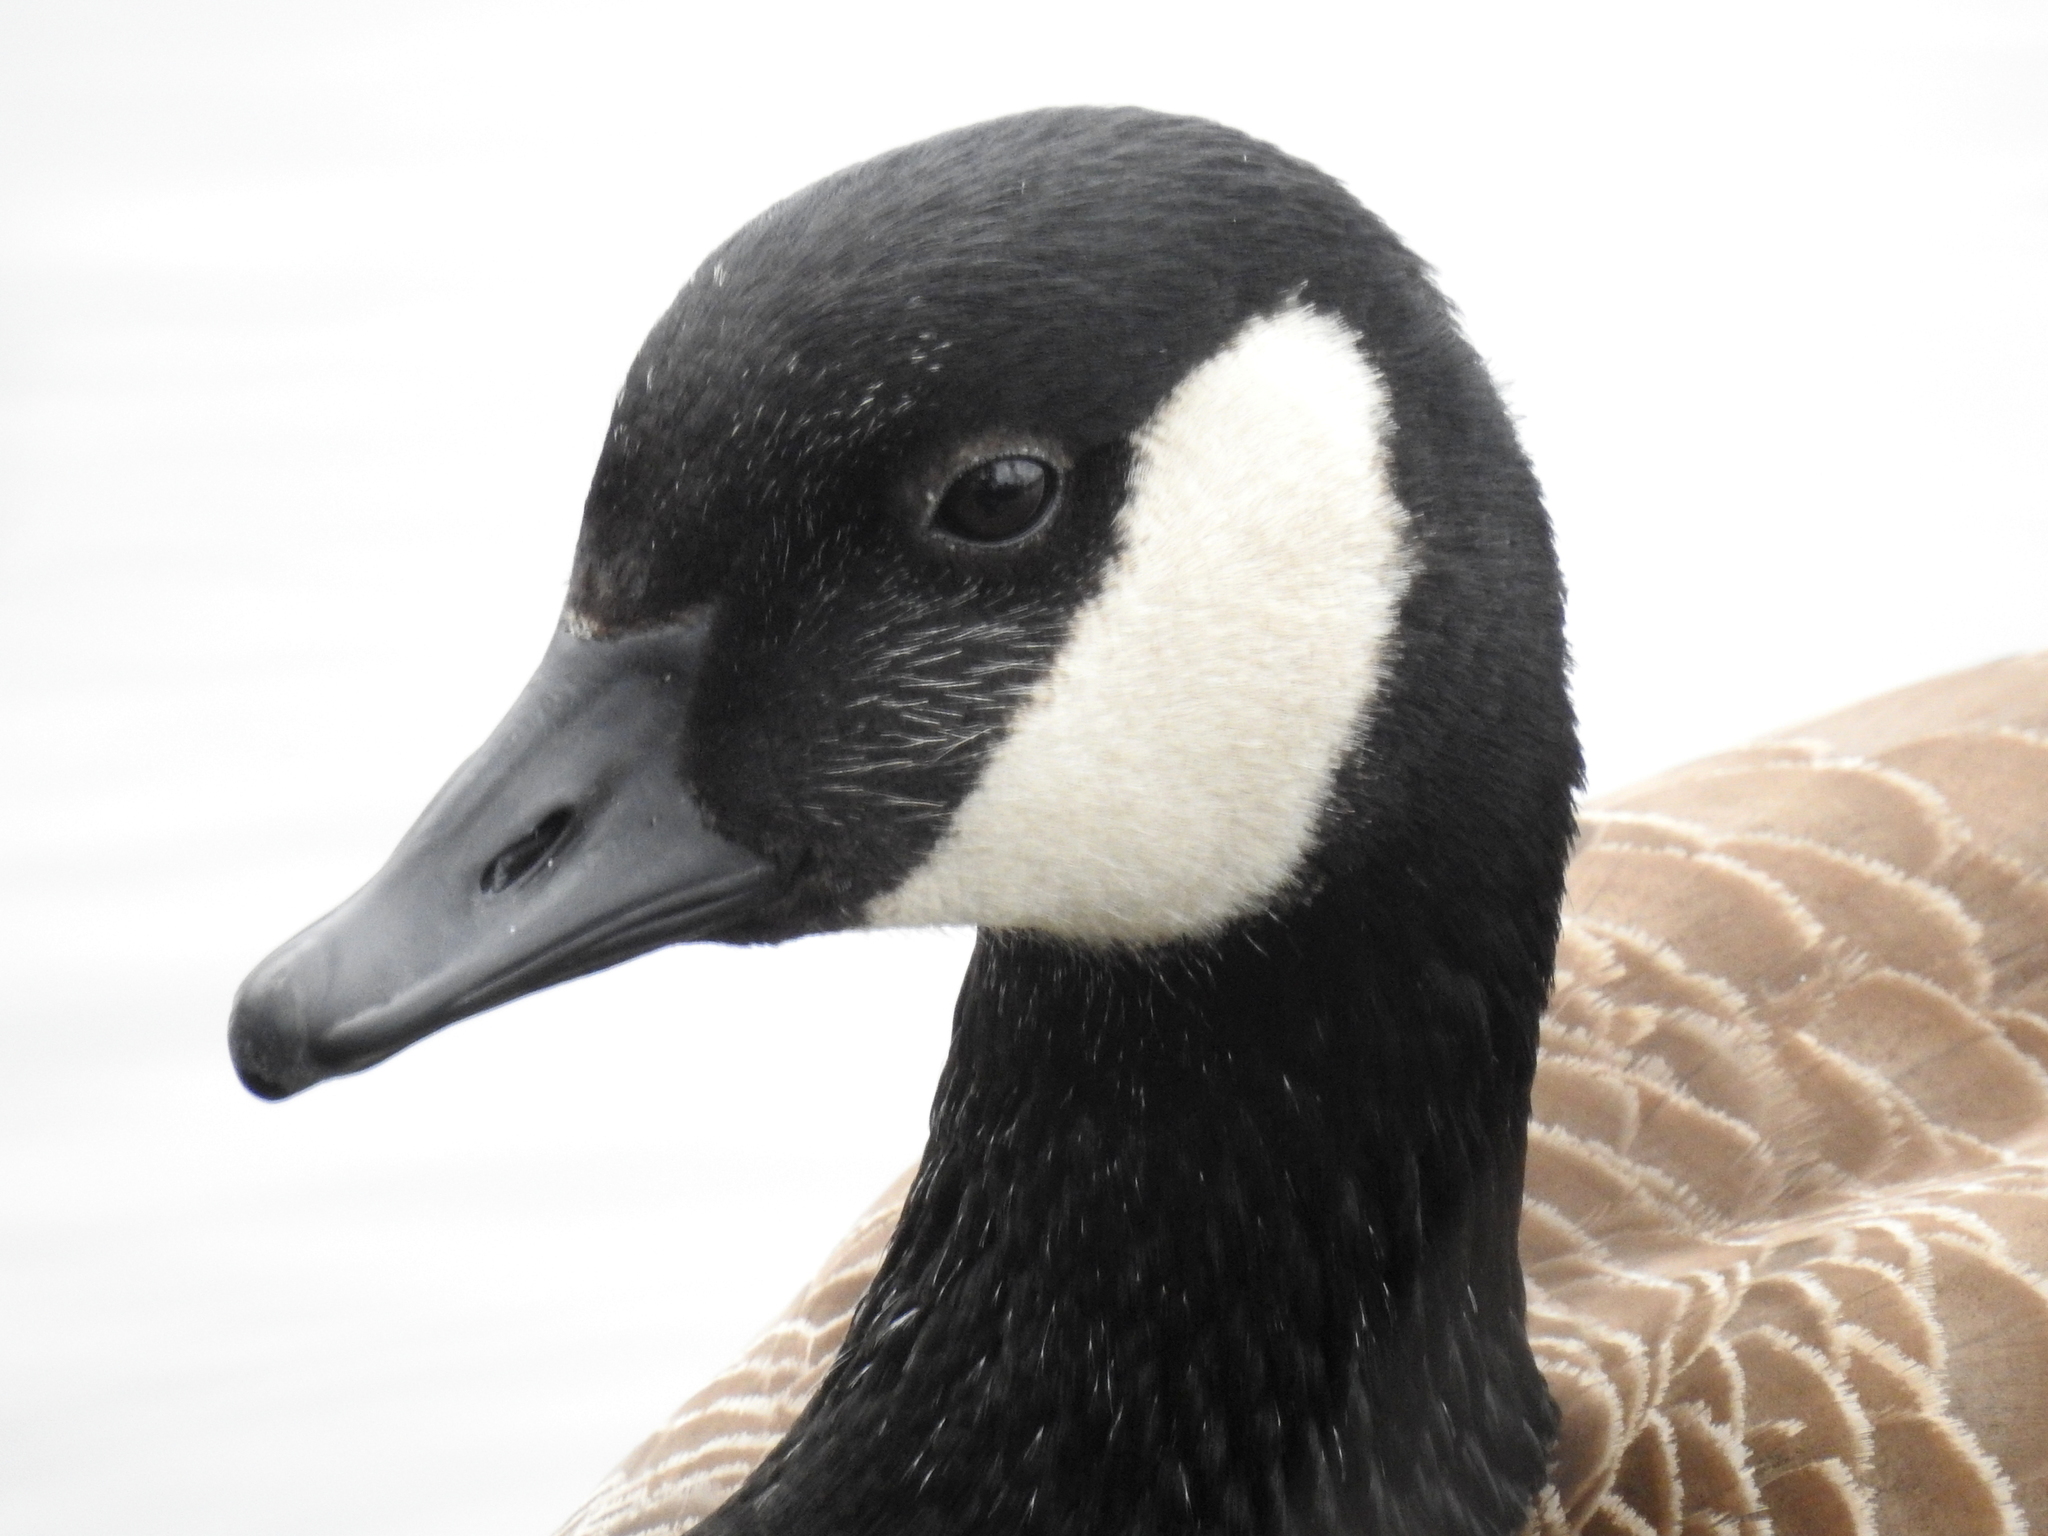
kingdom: Animalia
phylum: Chordata
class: Aves
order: Anseriformes
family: Anatidae
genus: Branta
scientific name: Branta canadensis
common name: Canada goose
